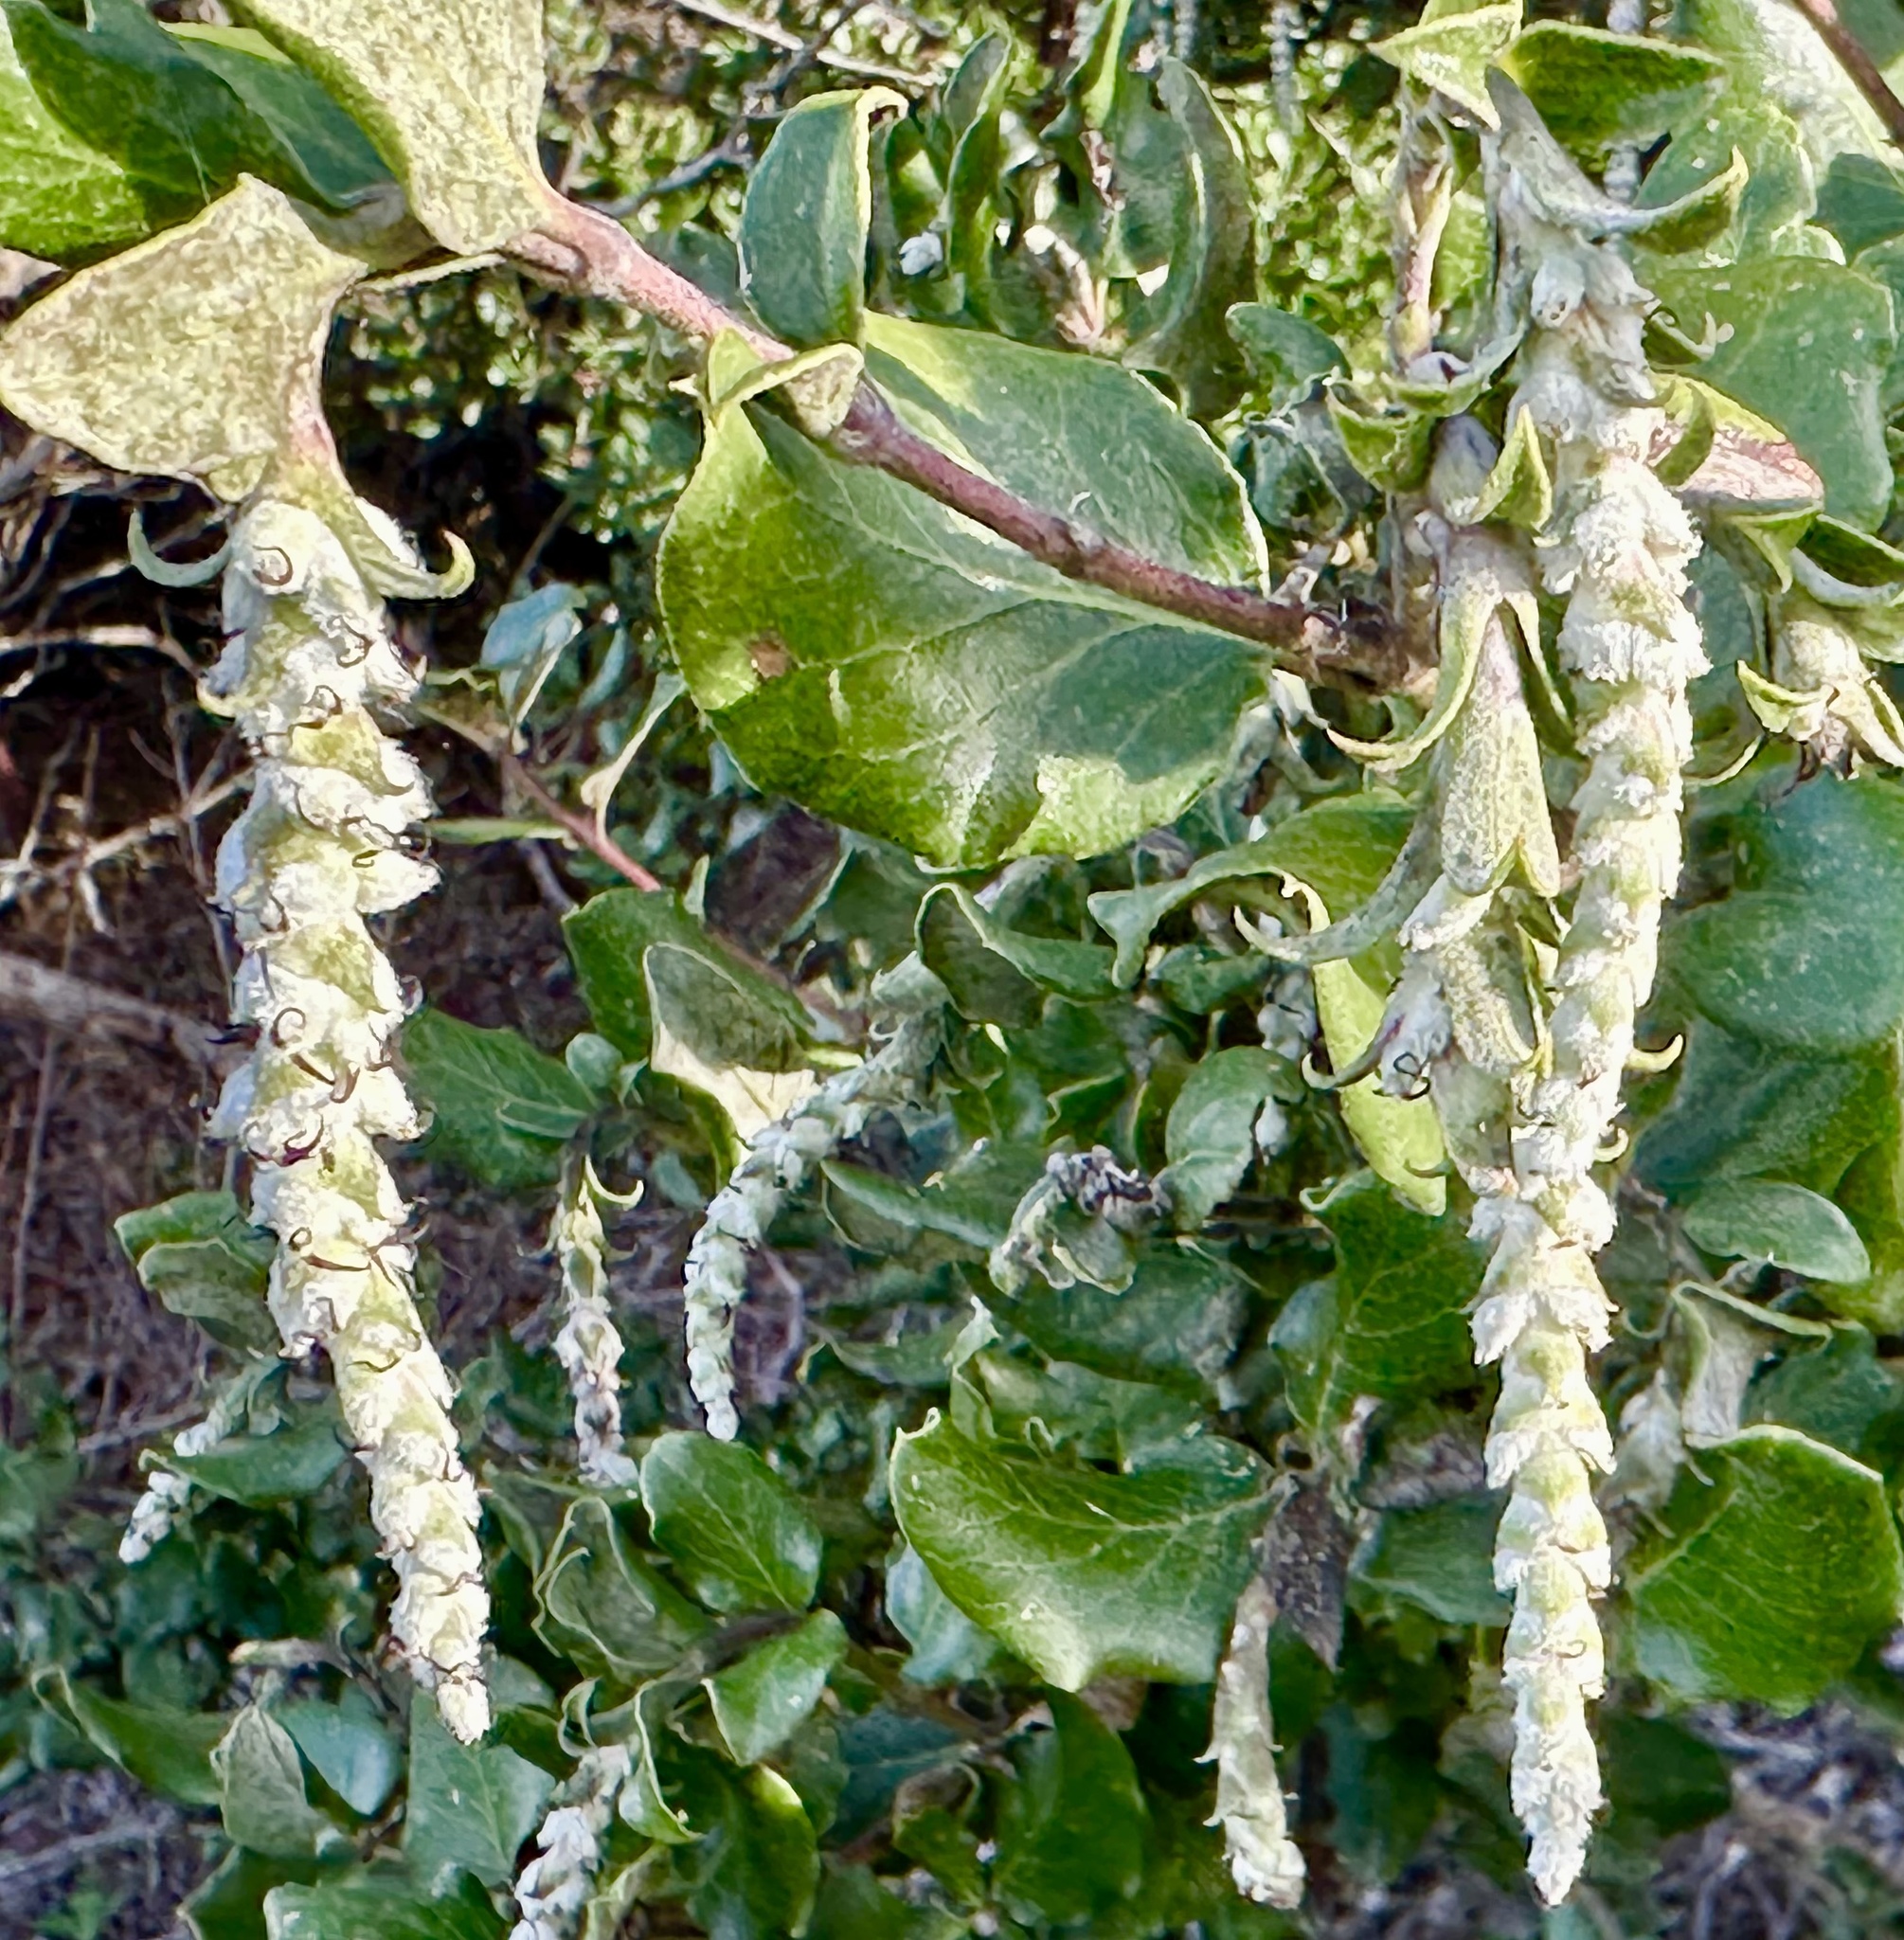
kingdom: Plantae
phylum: Tracheophyta
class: Magnoliopsida
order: Garryales
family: Garryaceae
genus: Garrya
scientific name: Garrya elliptica
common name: Silk-tassel
